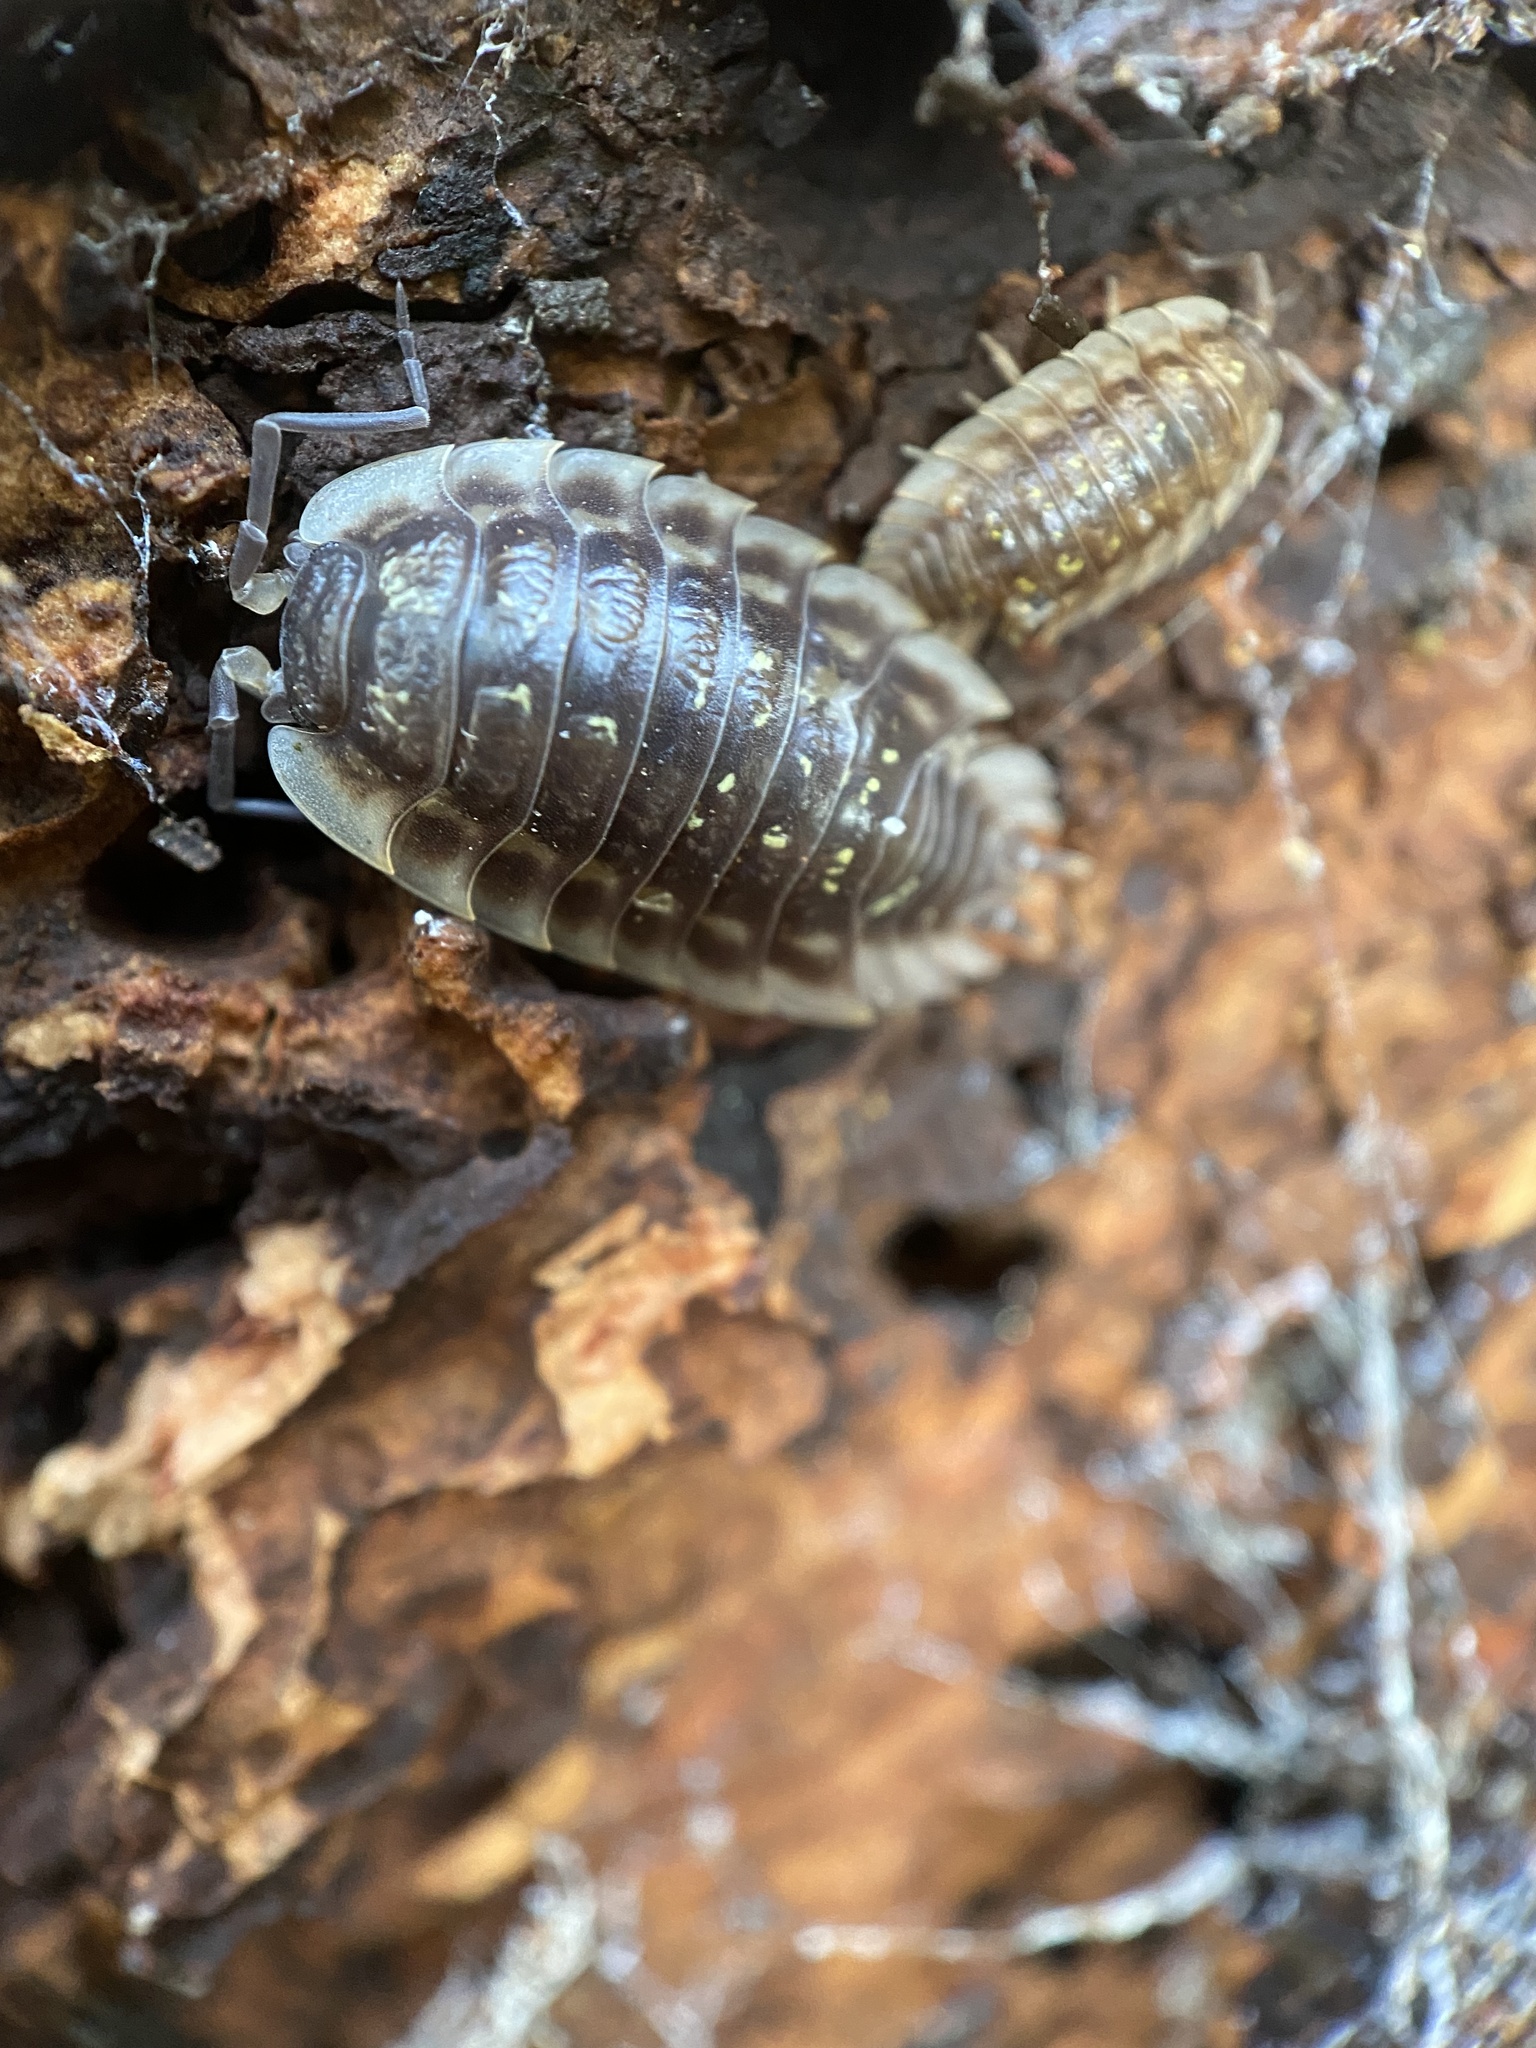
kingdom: Animalia
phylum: Arthropoda
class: Malacostraca
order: Isopoda
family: Oniscidae
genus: Oniscus
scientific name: Oniscus asellus
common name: Common shiny woodlouse
